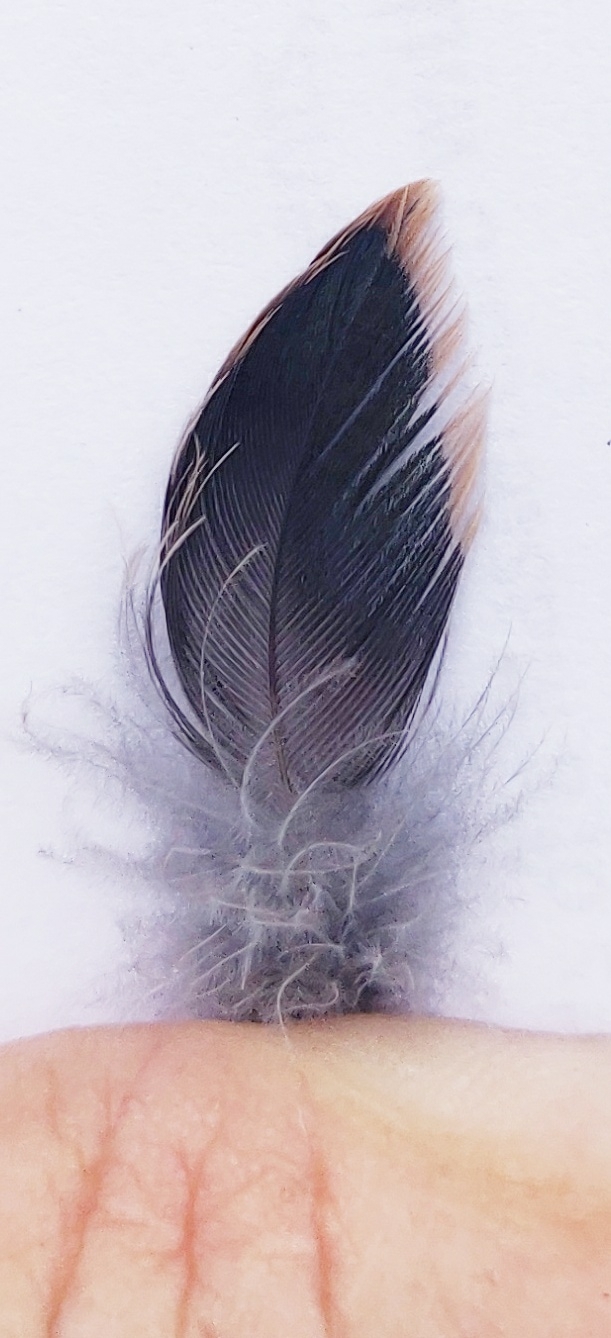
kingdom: Animalia
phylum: Chordata
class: Aves
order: Passeriformes
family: Sturnidae
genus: Sturnus
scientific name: Sturnus vulgaris
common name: Common starling
